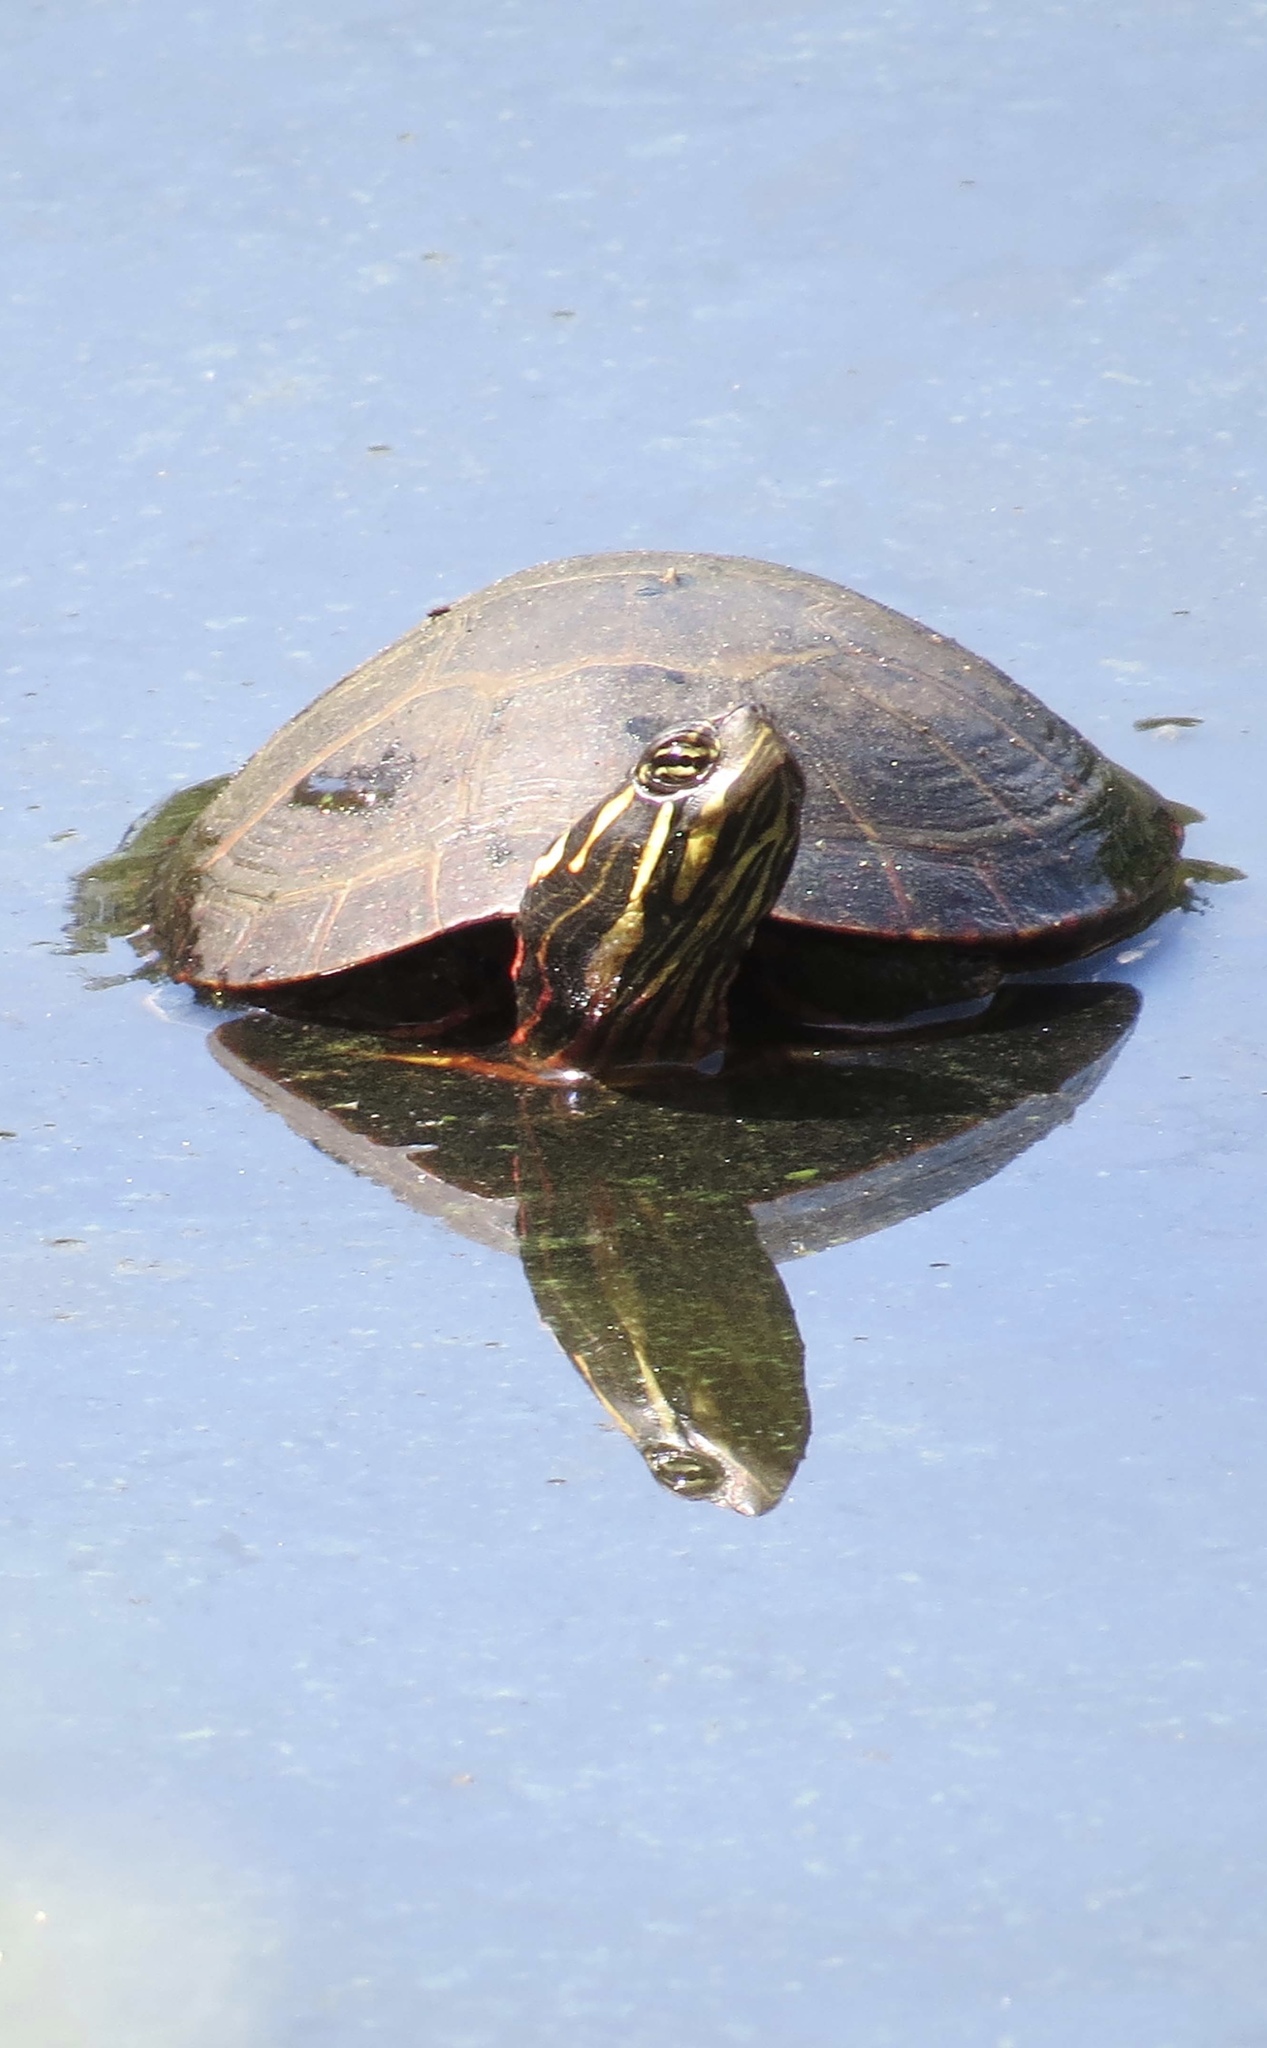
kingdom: Animalia
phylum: Chordata
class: Testudines
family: Emydidae
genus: Chrysemys
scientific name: Chrysemys picta
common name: Painted turtle
